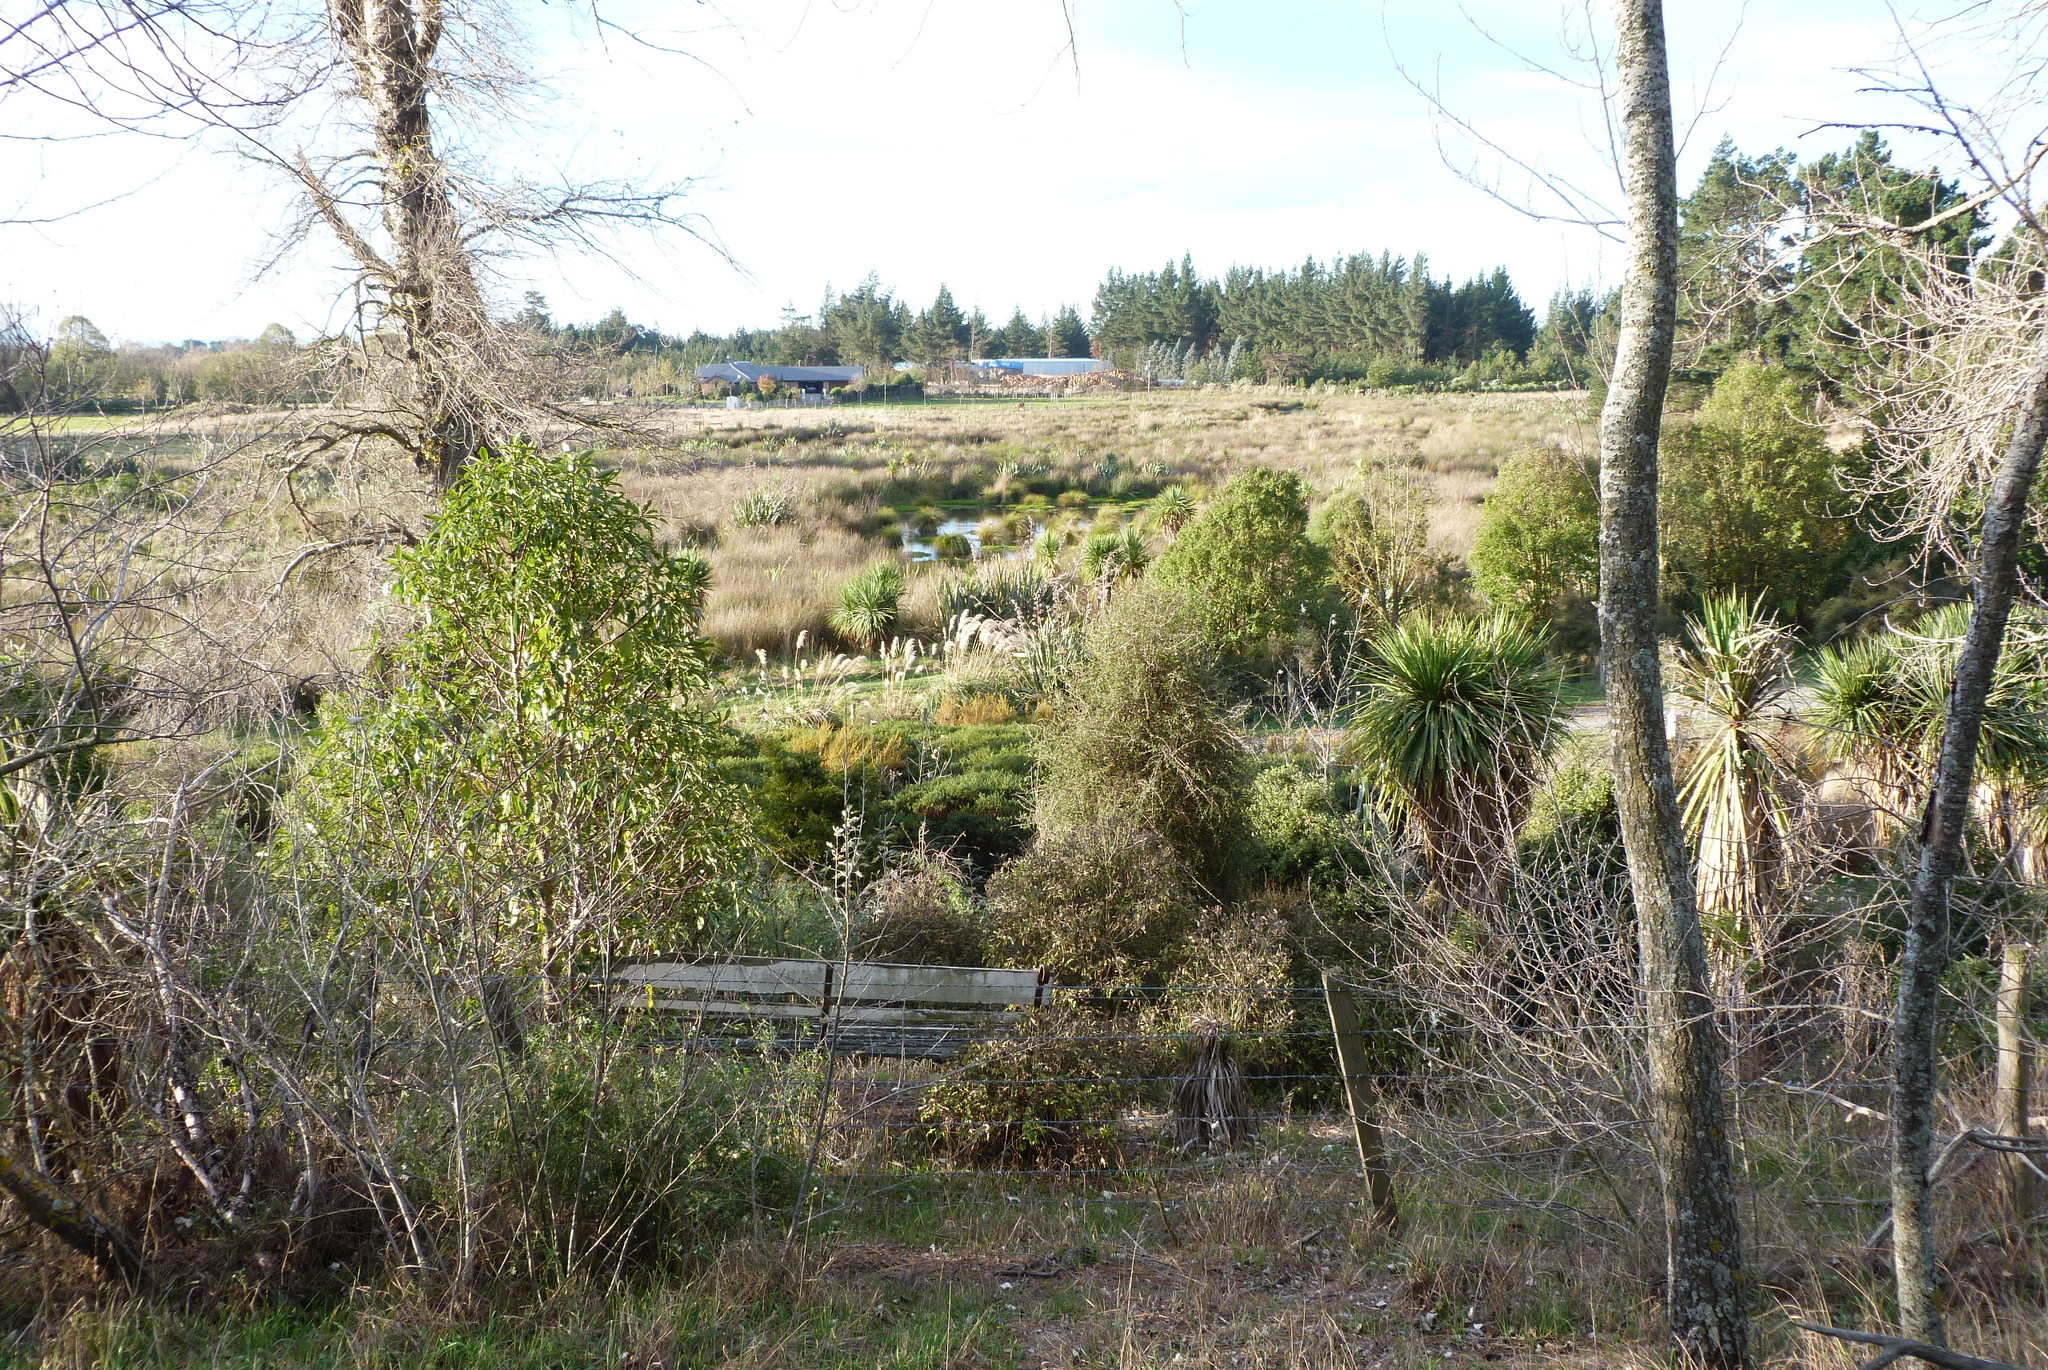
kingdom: Animalia
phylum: Chordata
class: Aves
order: Anseriformes
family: Anatidae
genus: Tadorna
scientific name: Tadorna variegata
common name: Paradise shelduck
